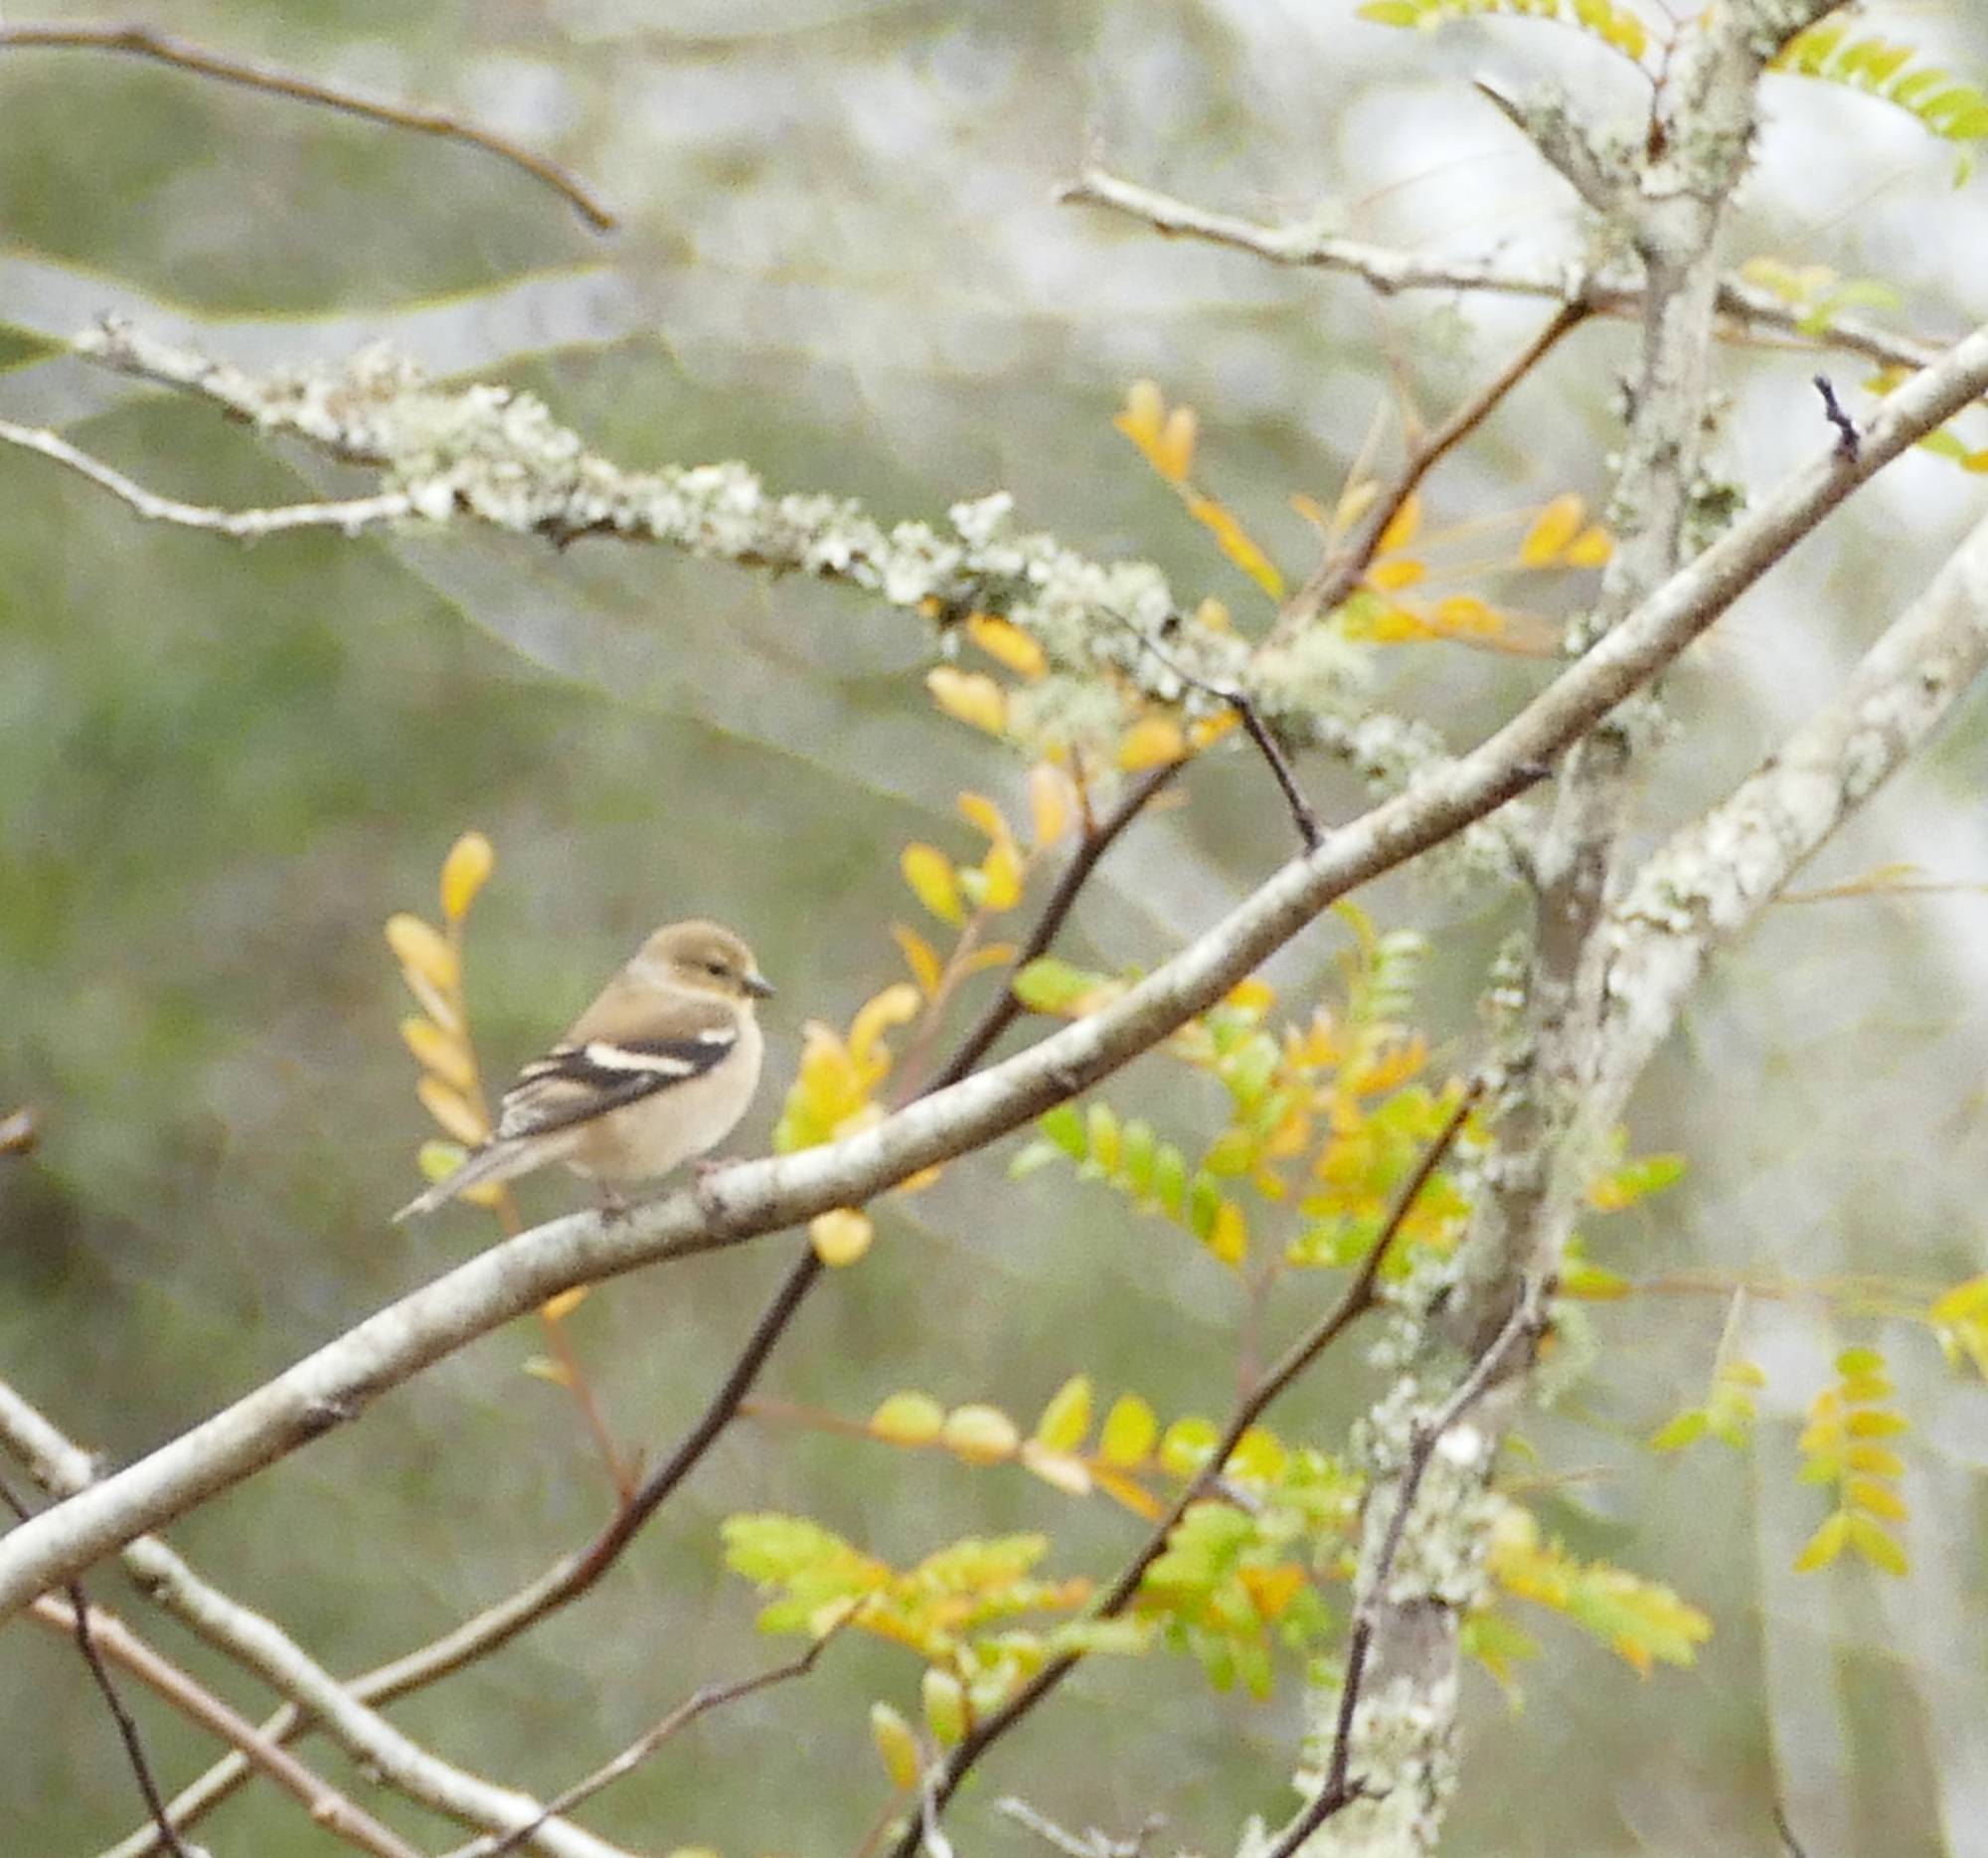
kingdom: Animalia
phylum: Chordata
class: Aves
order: Passeriformes
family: Fringillidae
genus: Spinus
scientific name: Spinus tristis
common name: American goldfinch
